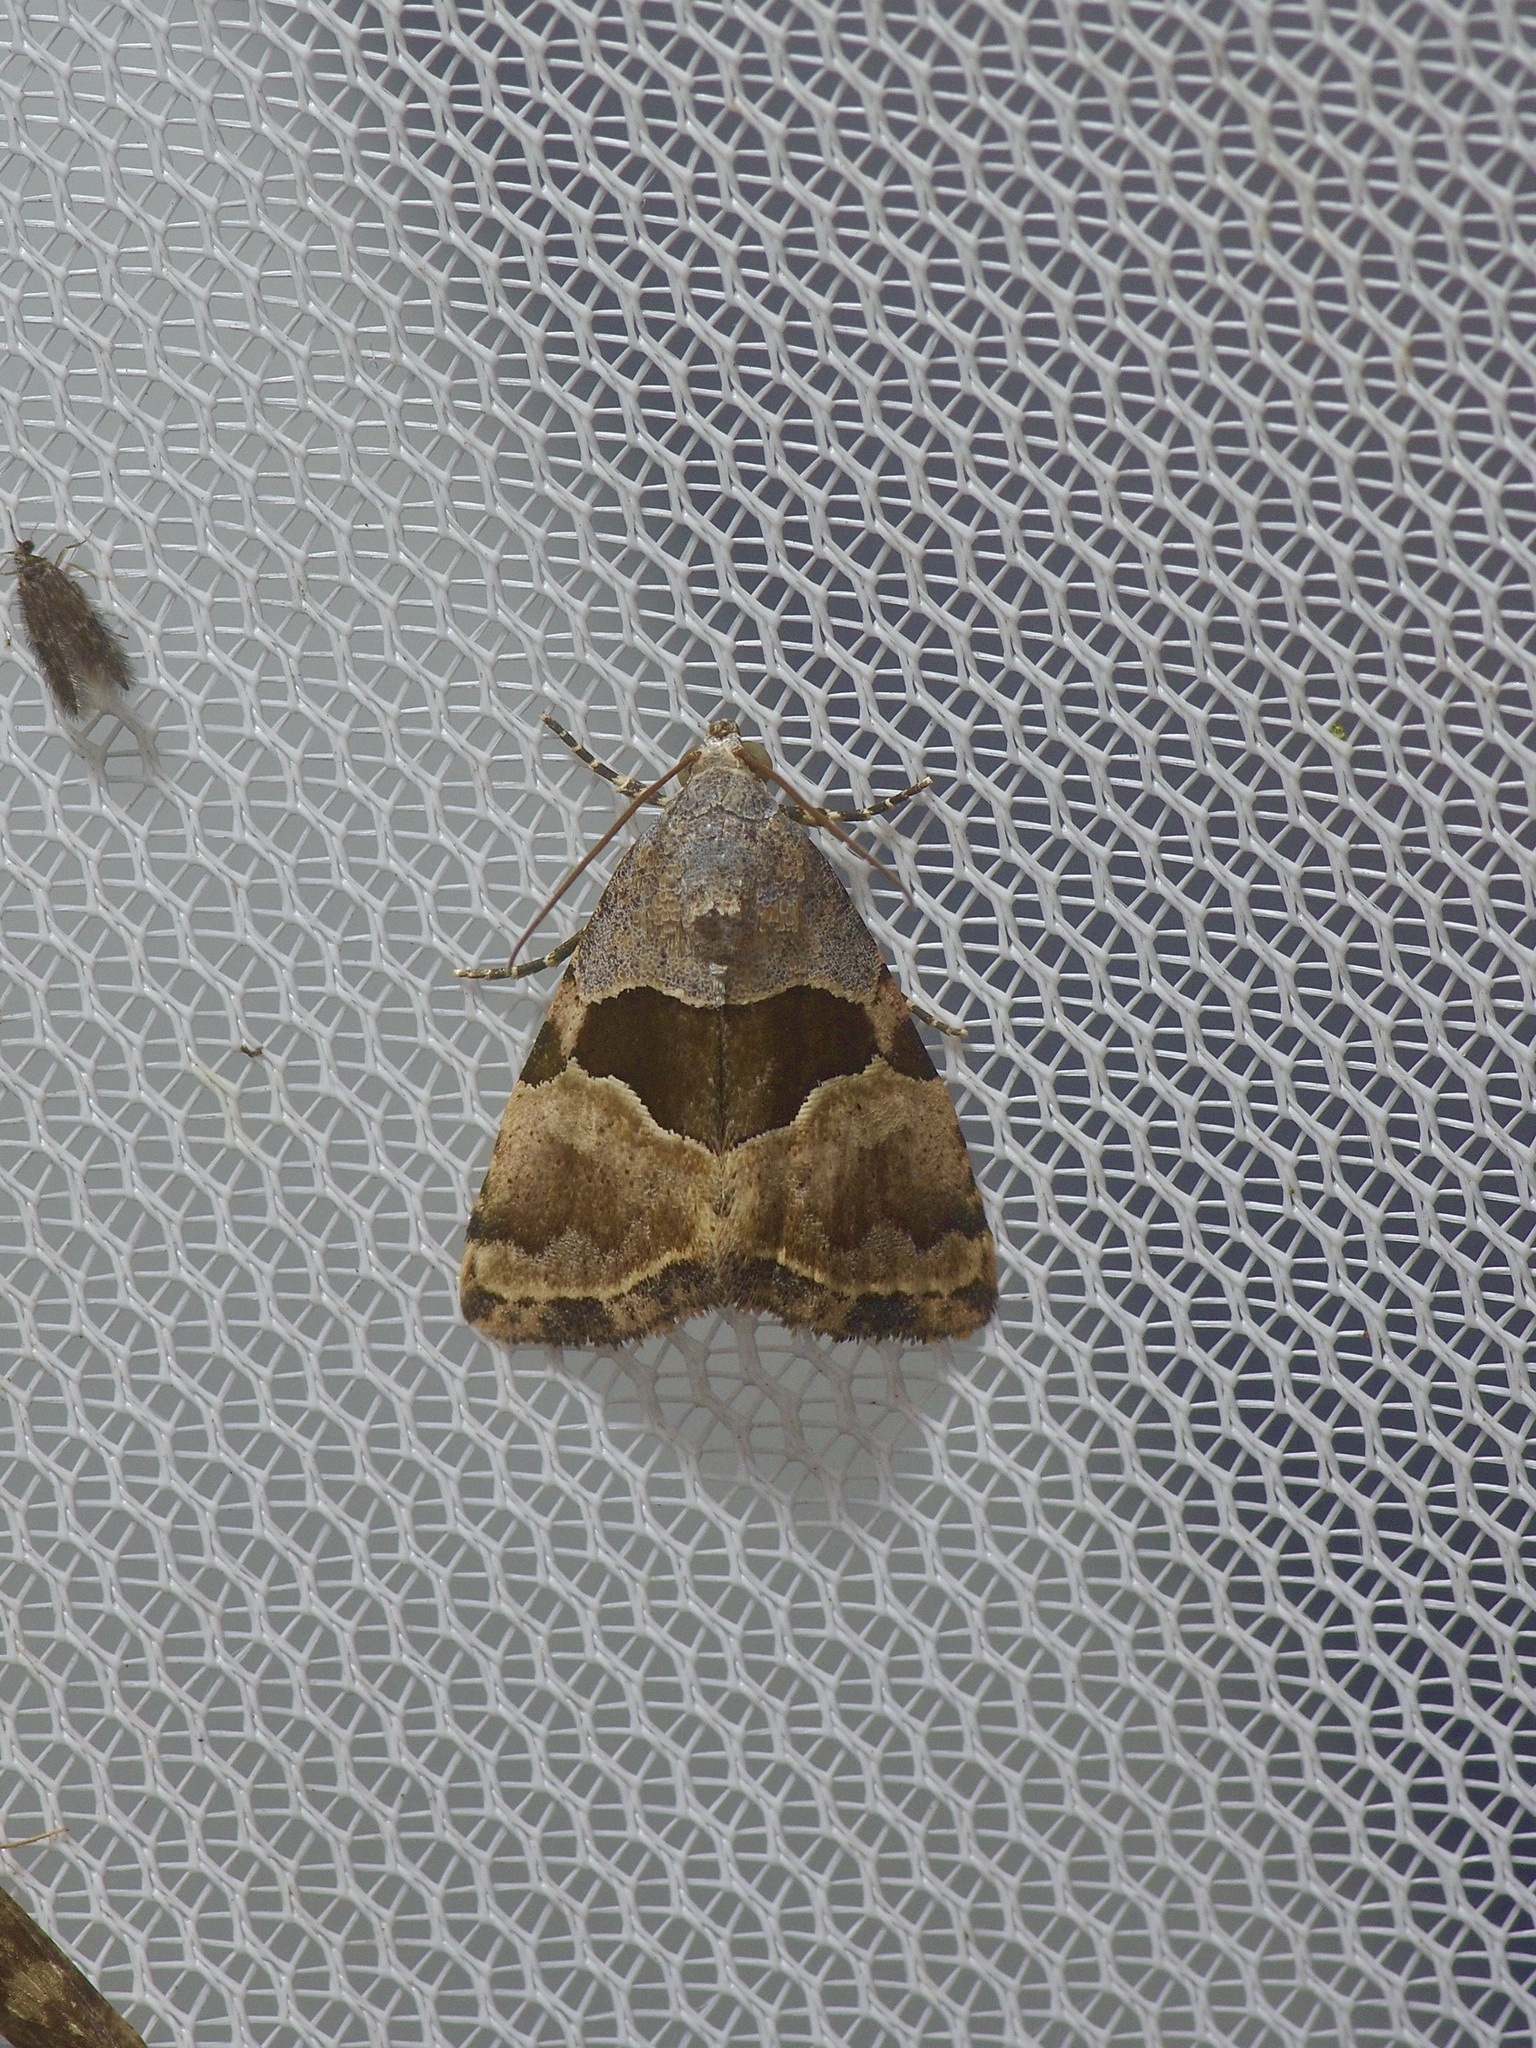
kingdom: Animalia
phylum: Arthropoda
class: Insecta
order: Lepidoptera
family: Noctuidae
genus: Cobubatha
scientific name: Cobubatha lixiva
